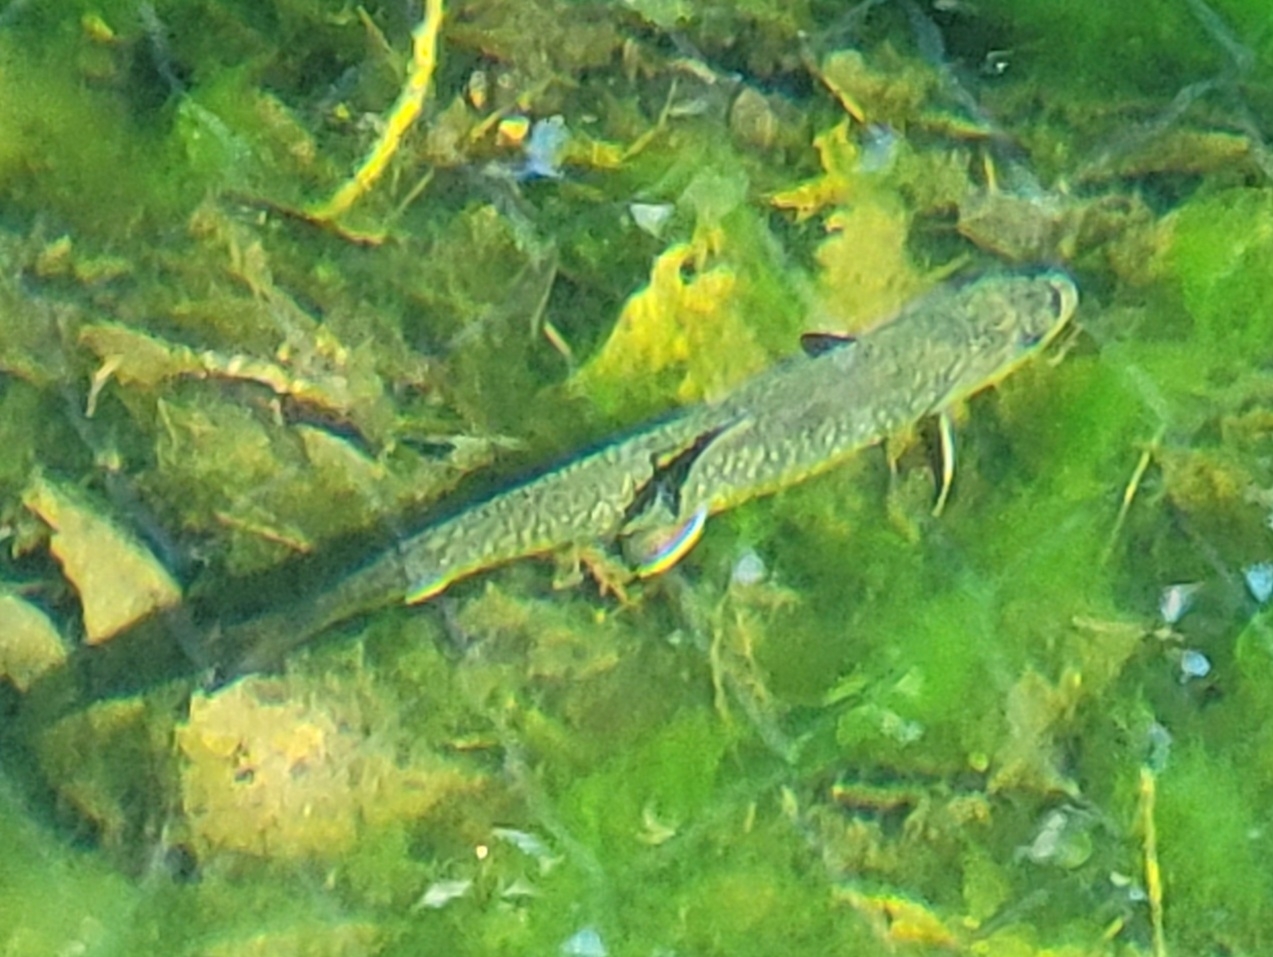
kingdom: Animalia
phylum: Chordata
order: Salmoniformes
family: Salmonidae
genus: Salvelinus
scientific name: Salvelinus fontinalis
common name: Brook trout
